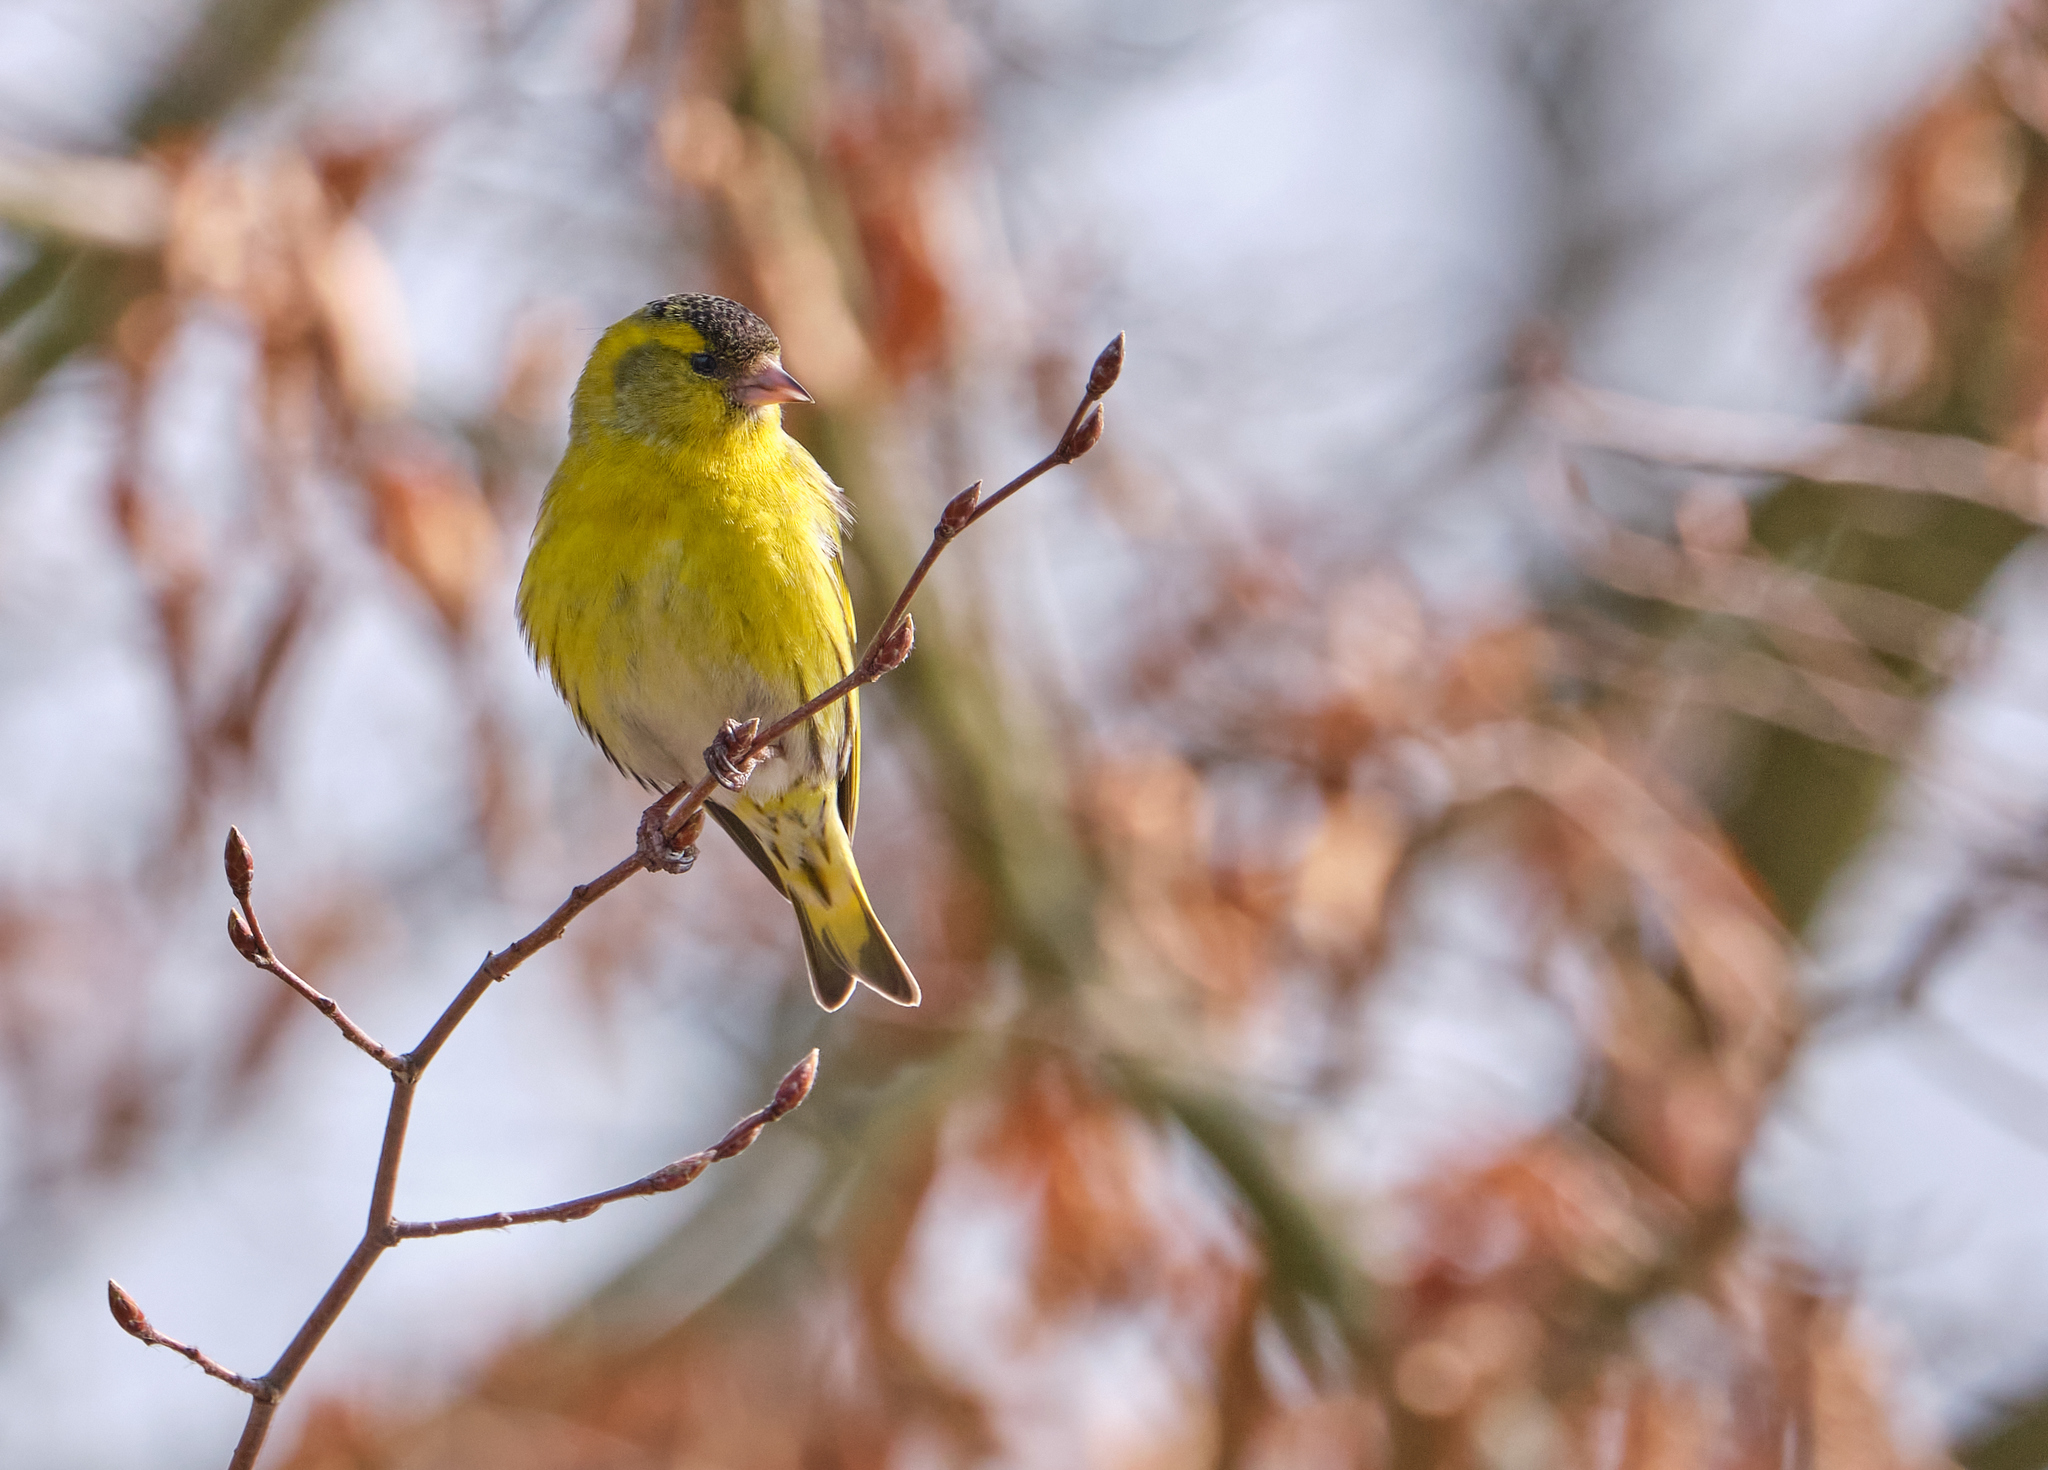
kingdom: Animalia
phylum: Chordata
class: Aves
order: Passeriformes
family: Fringillidae
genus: Spinus
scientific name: Spinus spinus
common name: Eurasian siskin
